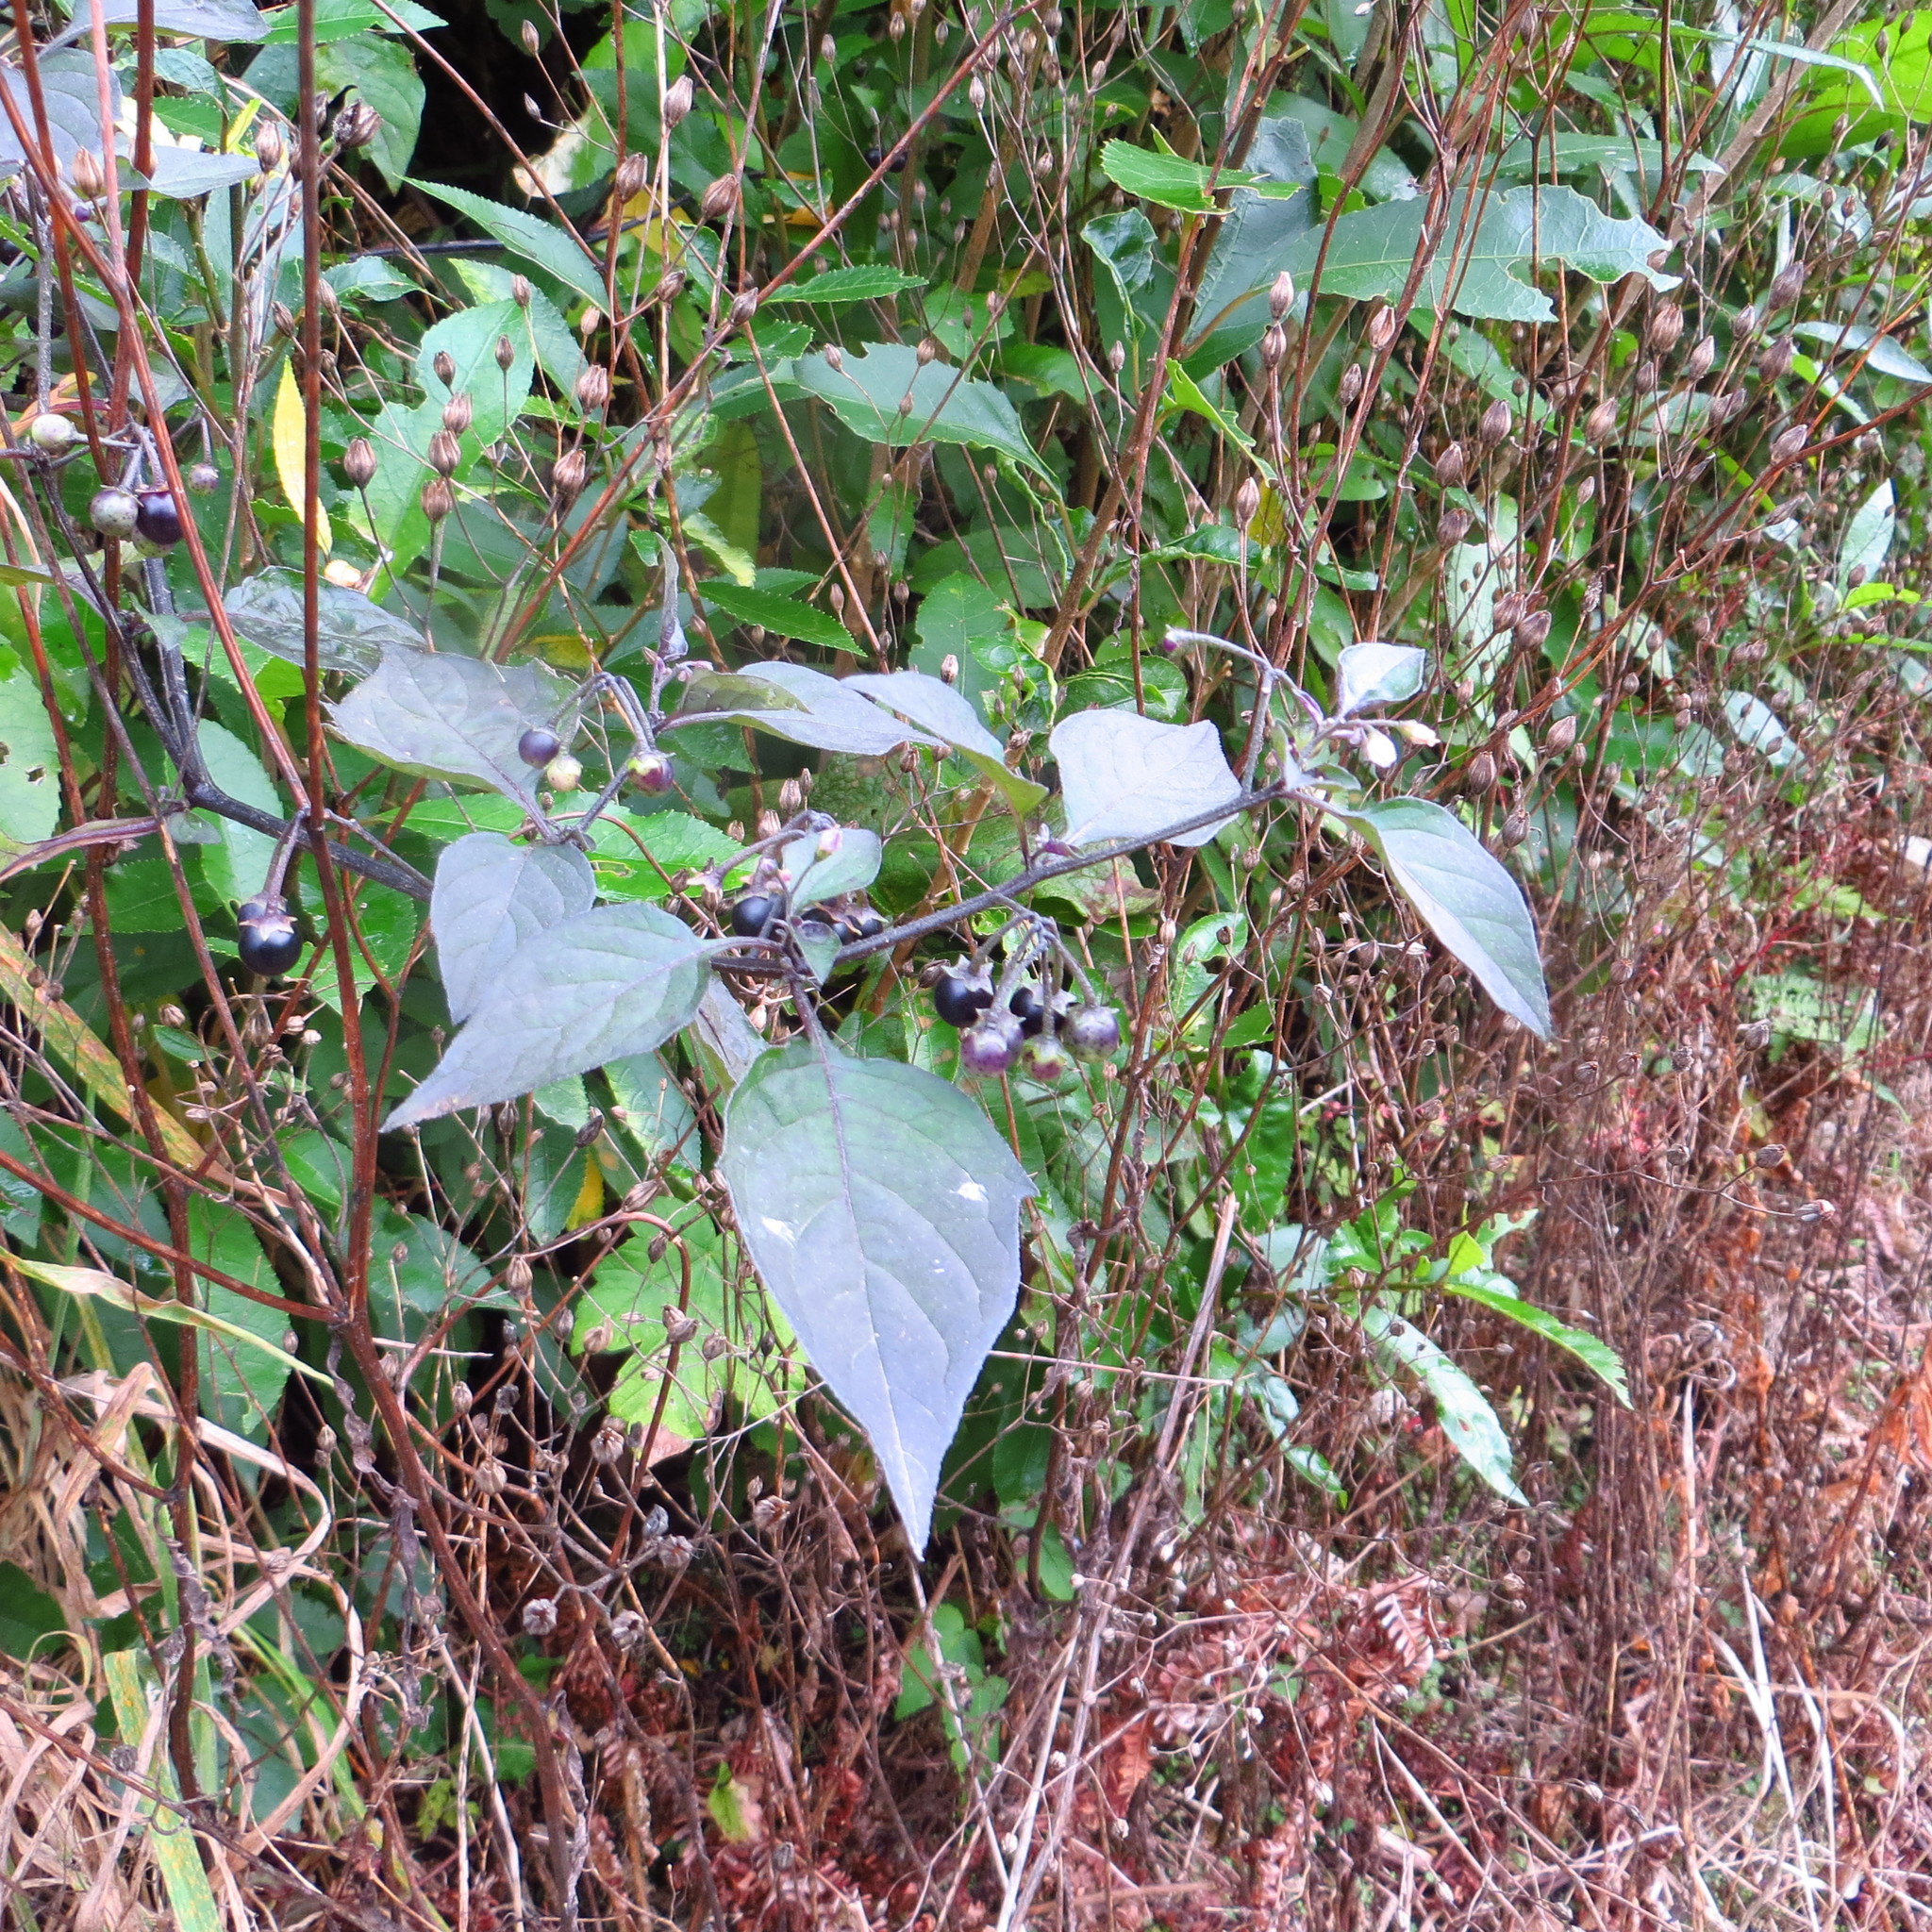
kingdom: Plantae
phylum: Tracheophyta
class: Magnoliopsida
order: Solanales
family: Solanaceae
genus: Solanum
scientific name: Solanum nigrum
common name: Black nightshade
